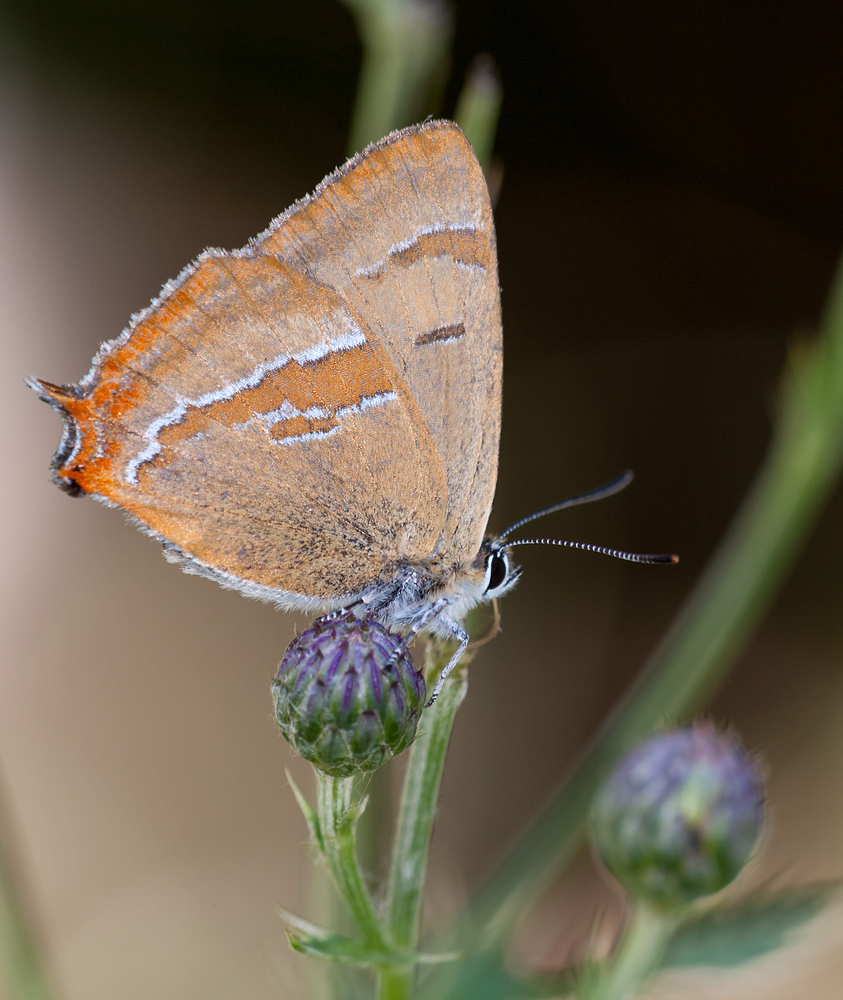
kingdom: Animalia
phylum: Arthropoda
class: Insecta
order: Lepidoptera
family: Lycaenidae
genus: Thecla
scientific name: Thecla betulae
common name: Brown hairstreak
